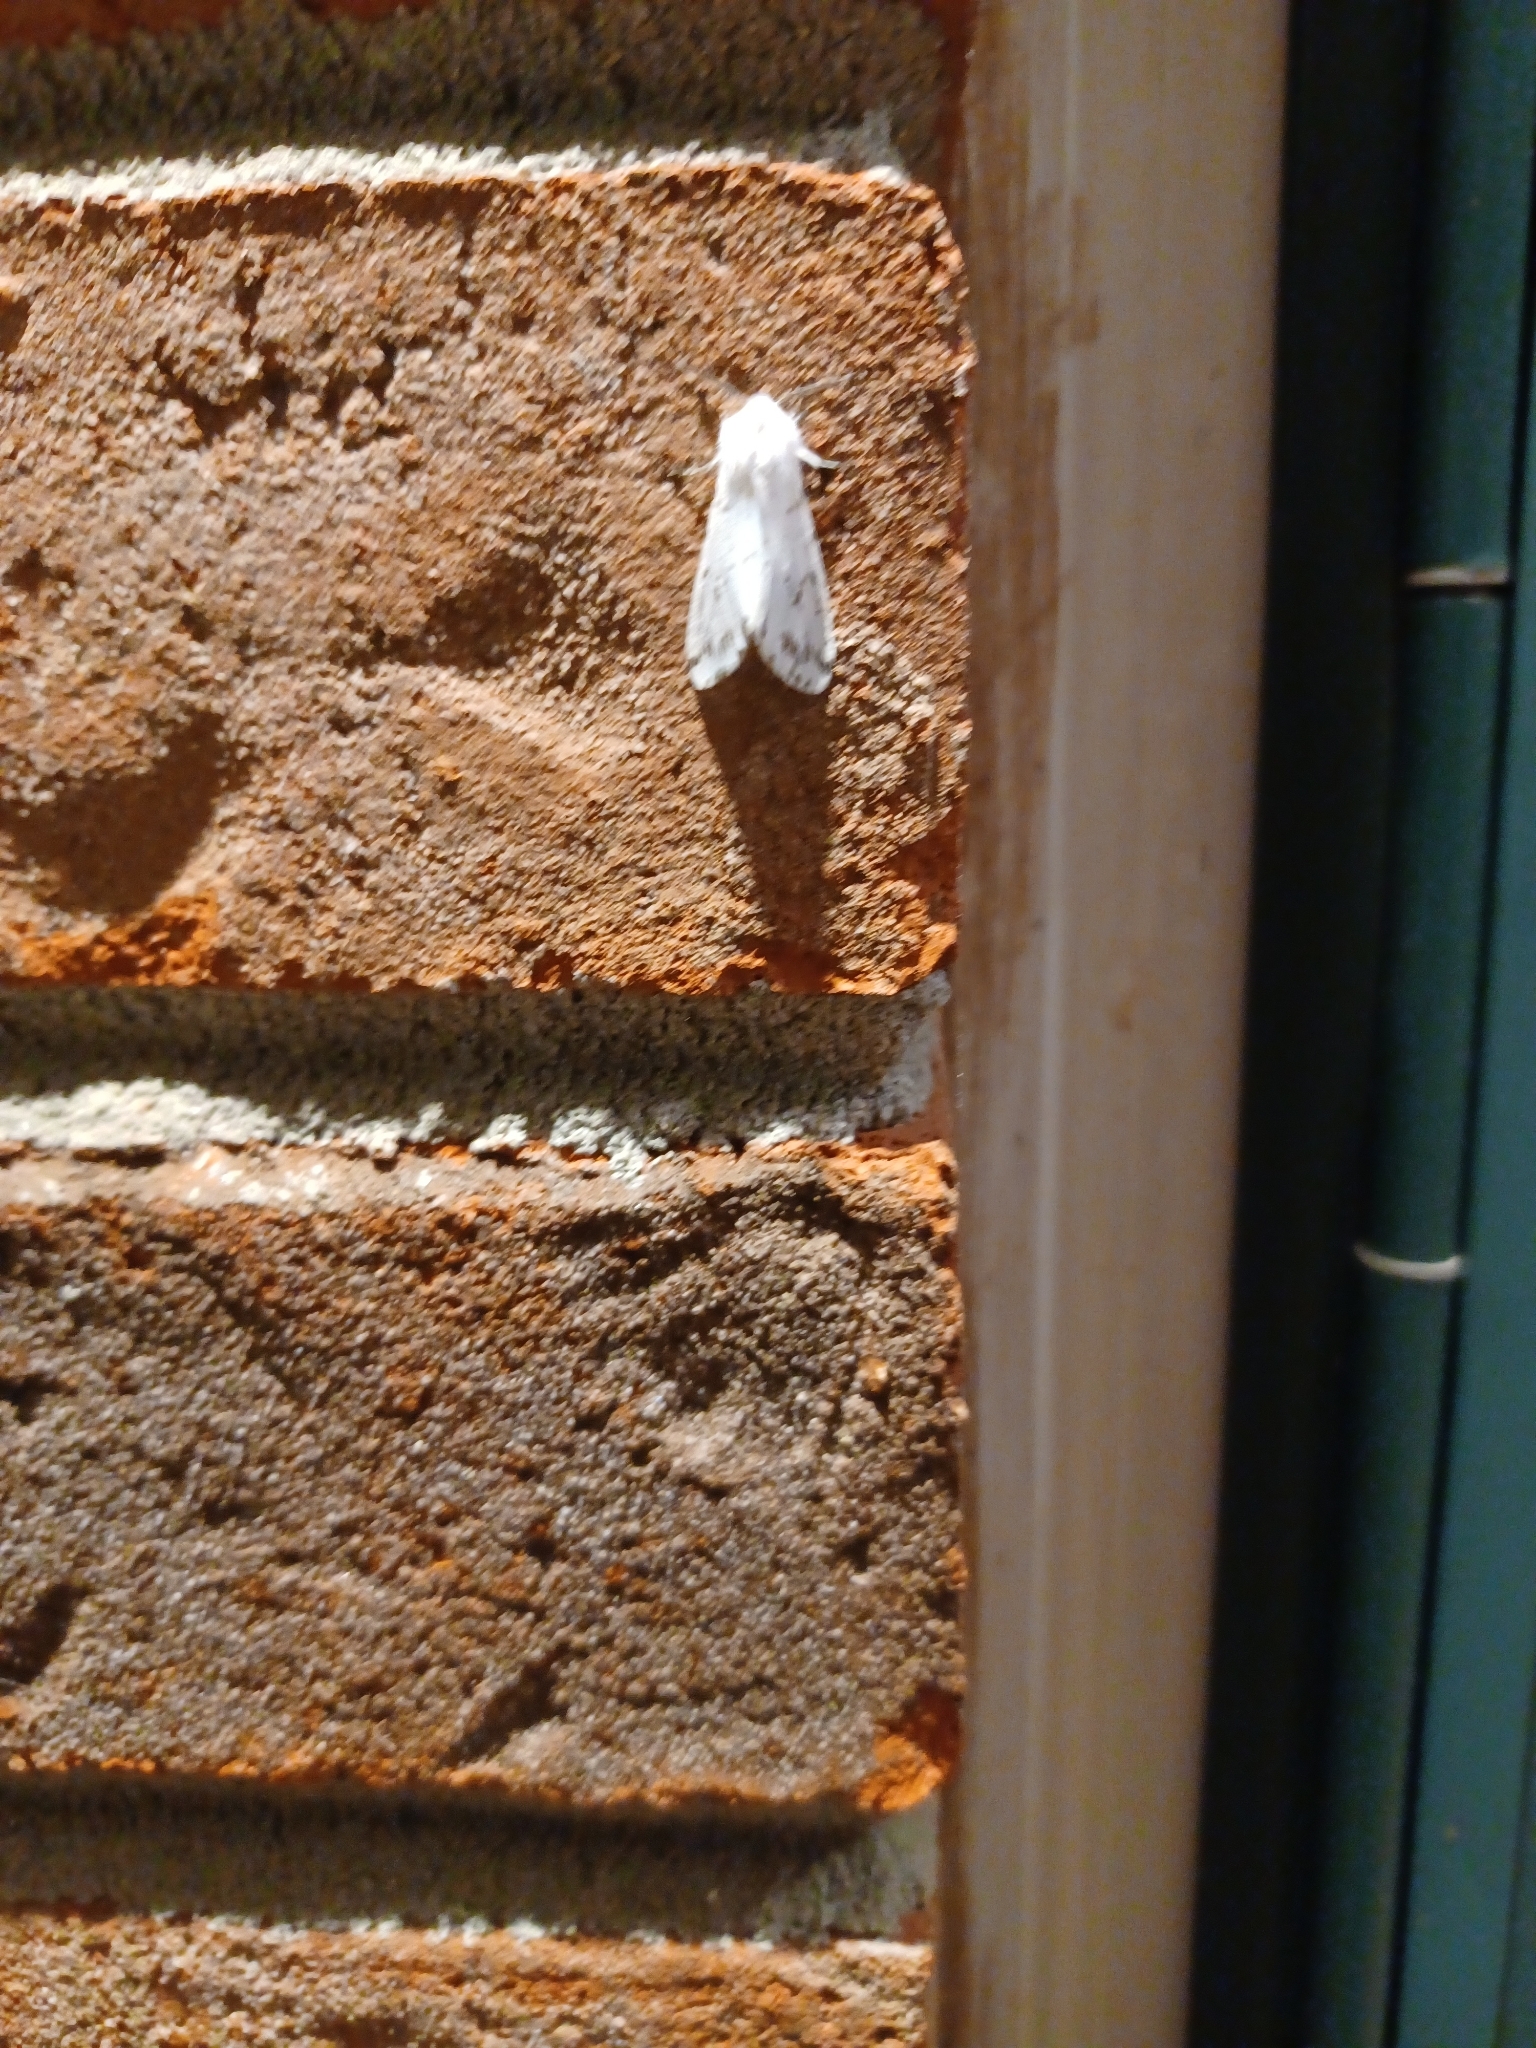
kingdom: Animalia
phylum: Arthropoda
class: Insecta
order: Lepidoptera
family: Erebidae
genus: Hyphantria
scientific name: Hyphantria cunea
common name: American white moth
